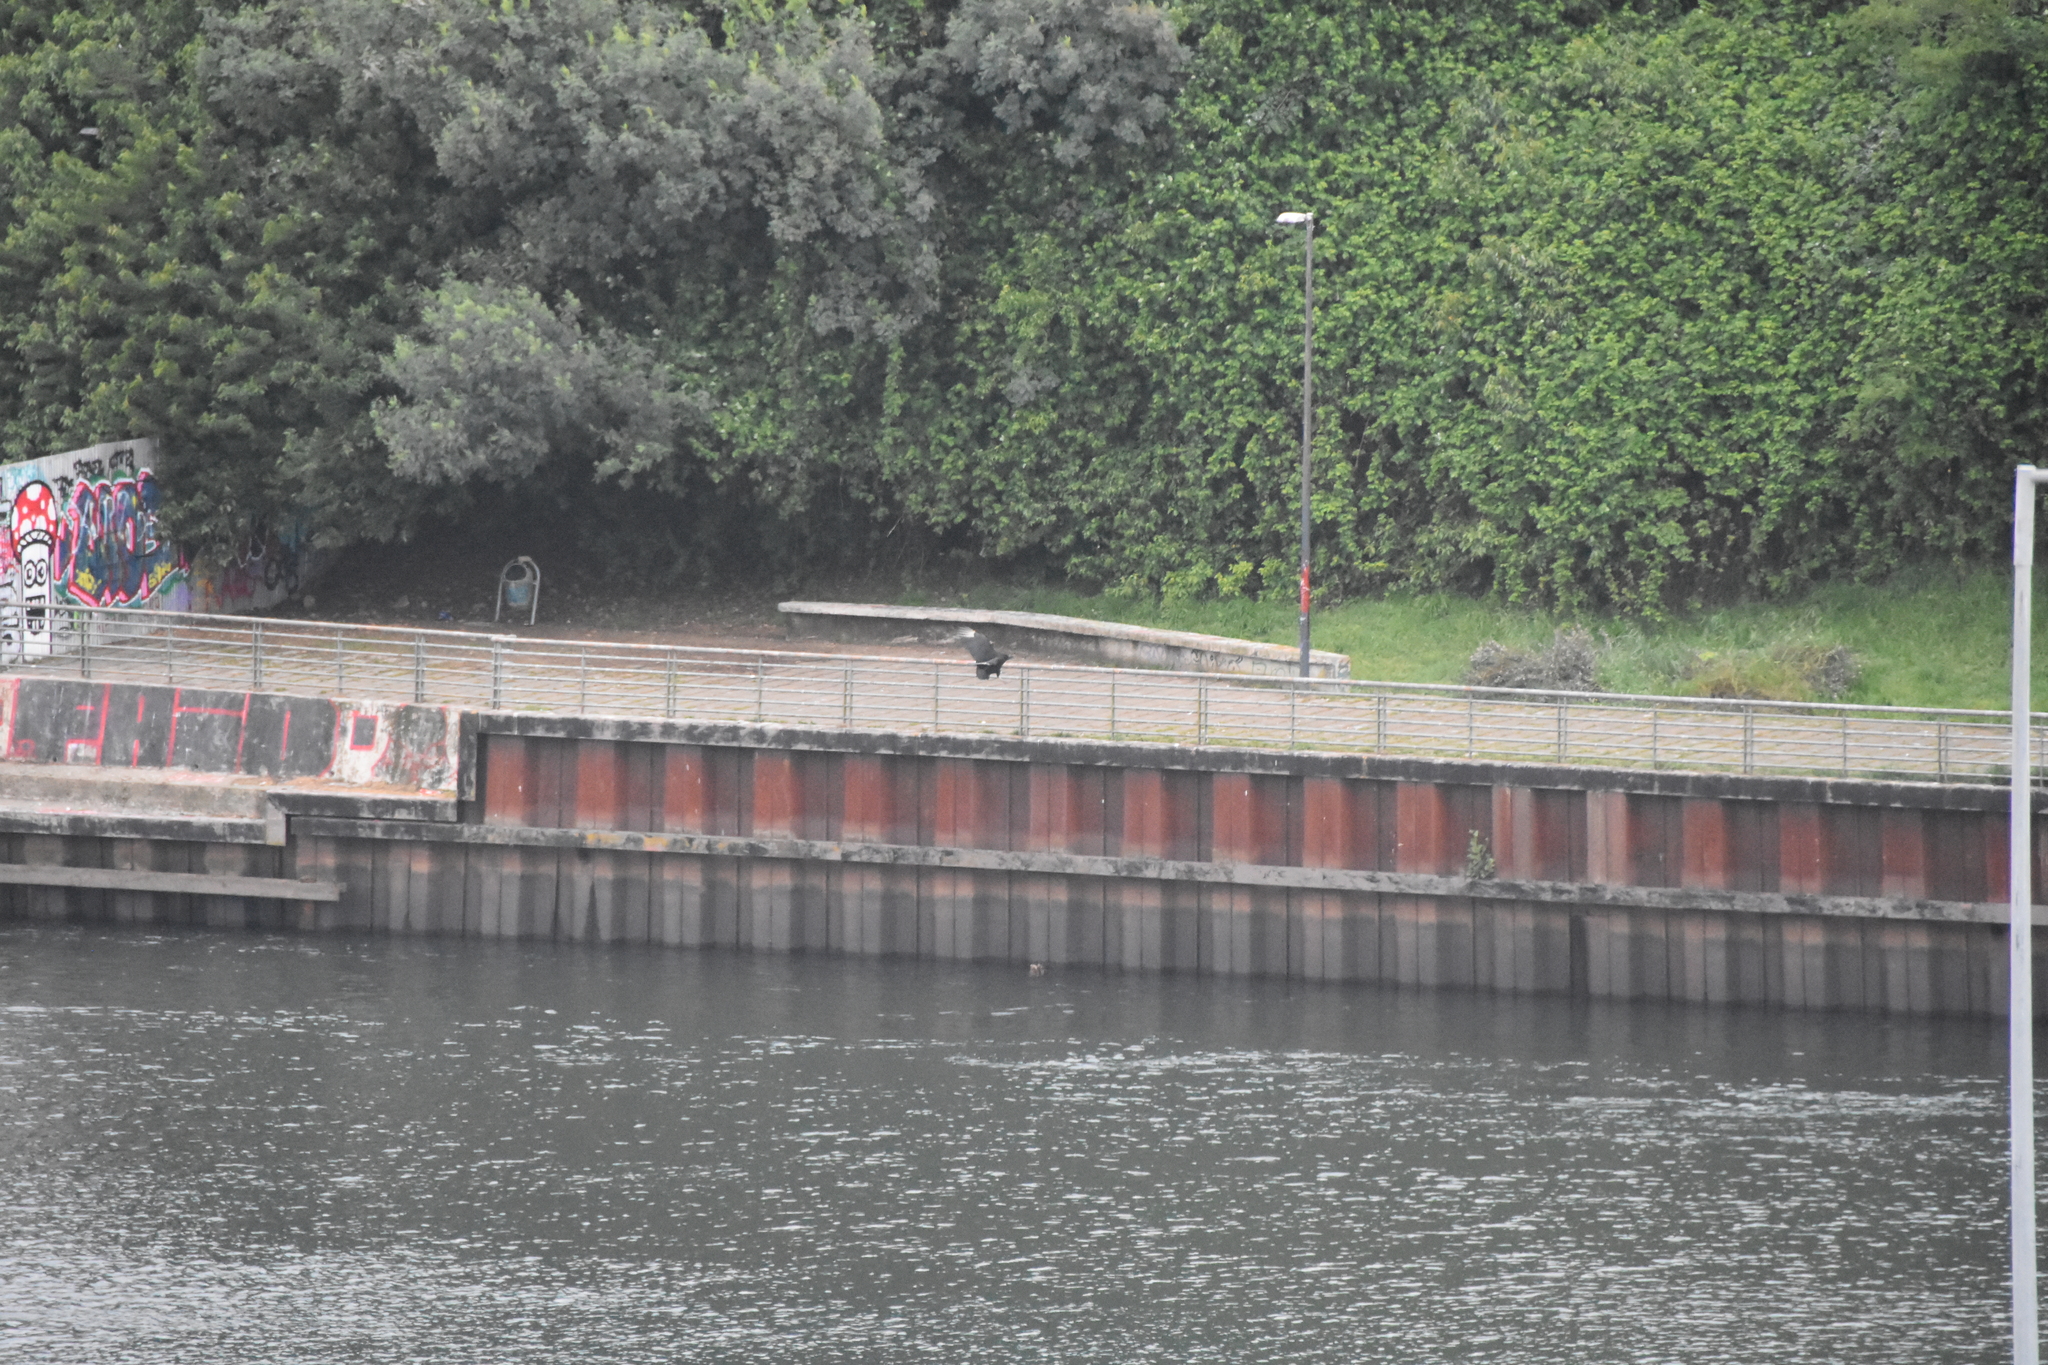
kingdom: Animalia
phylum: Chordata
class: Aves
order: Accipitriformes
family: Cathartidae
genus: Coragyps
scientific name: Coragyps atratus
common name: Black vulture
